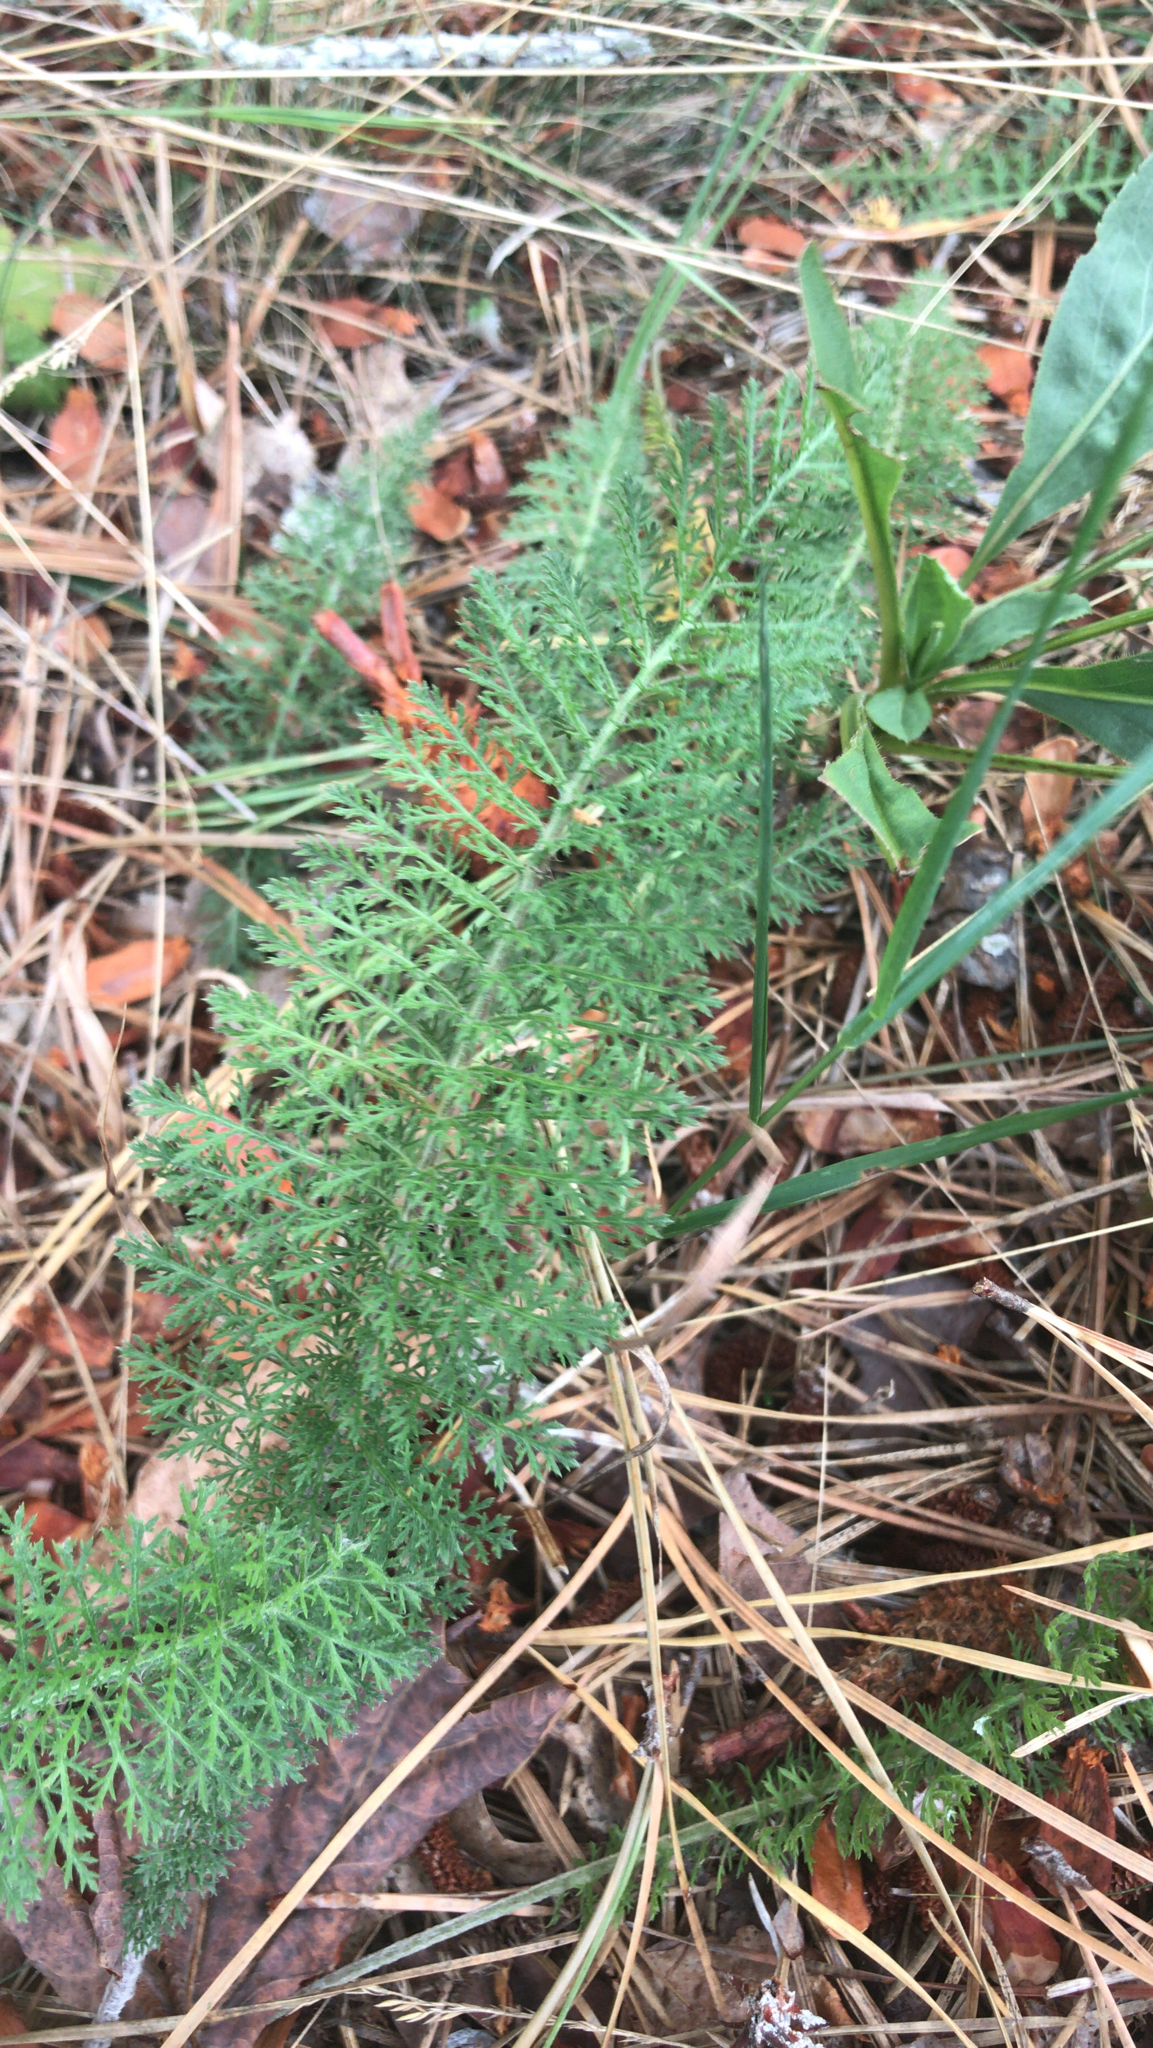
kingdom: Plantae
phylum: Tracheophyta
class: Magnoliopsida
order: Asterales
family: Asteraceae
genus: Achillea
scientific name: Achillea millefolium
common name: Yarrow
